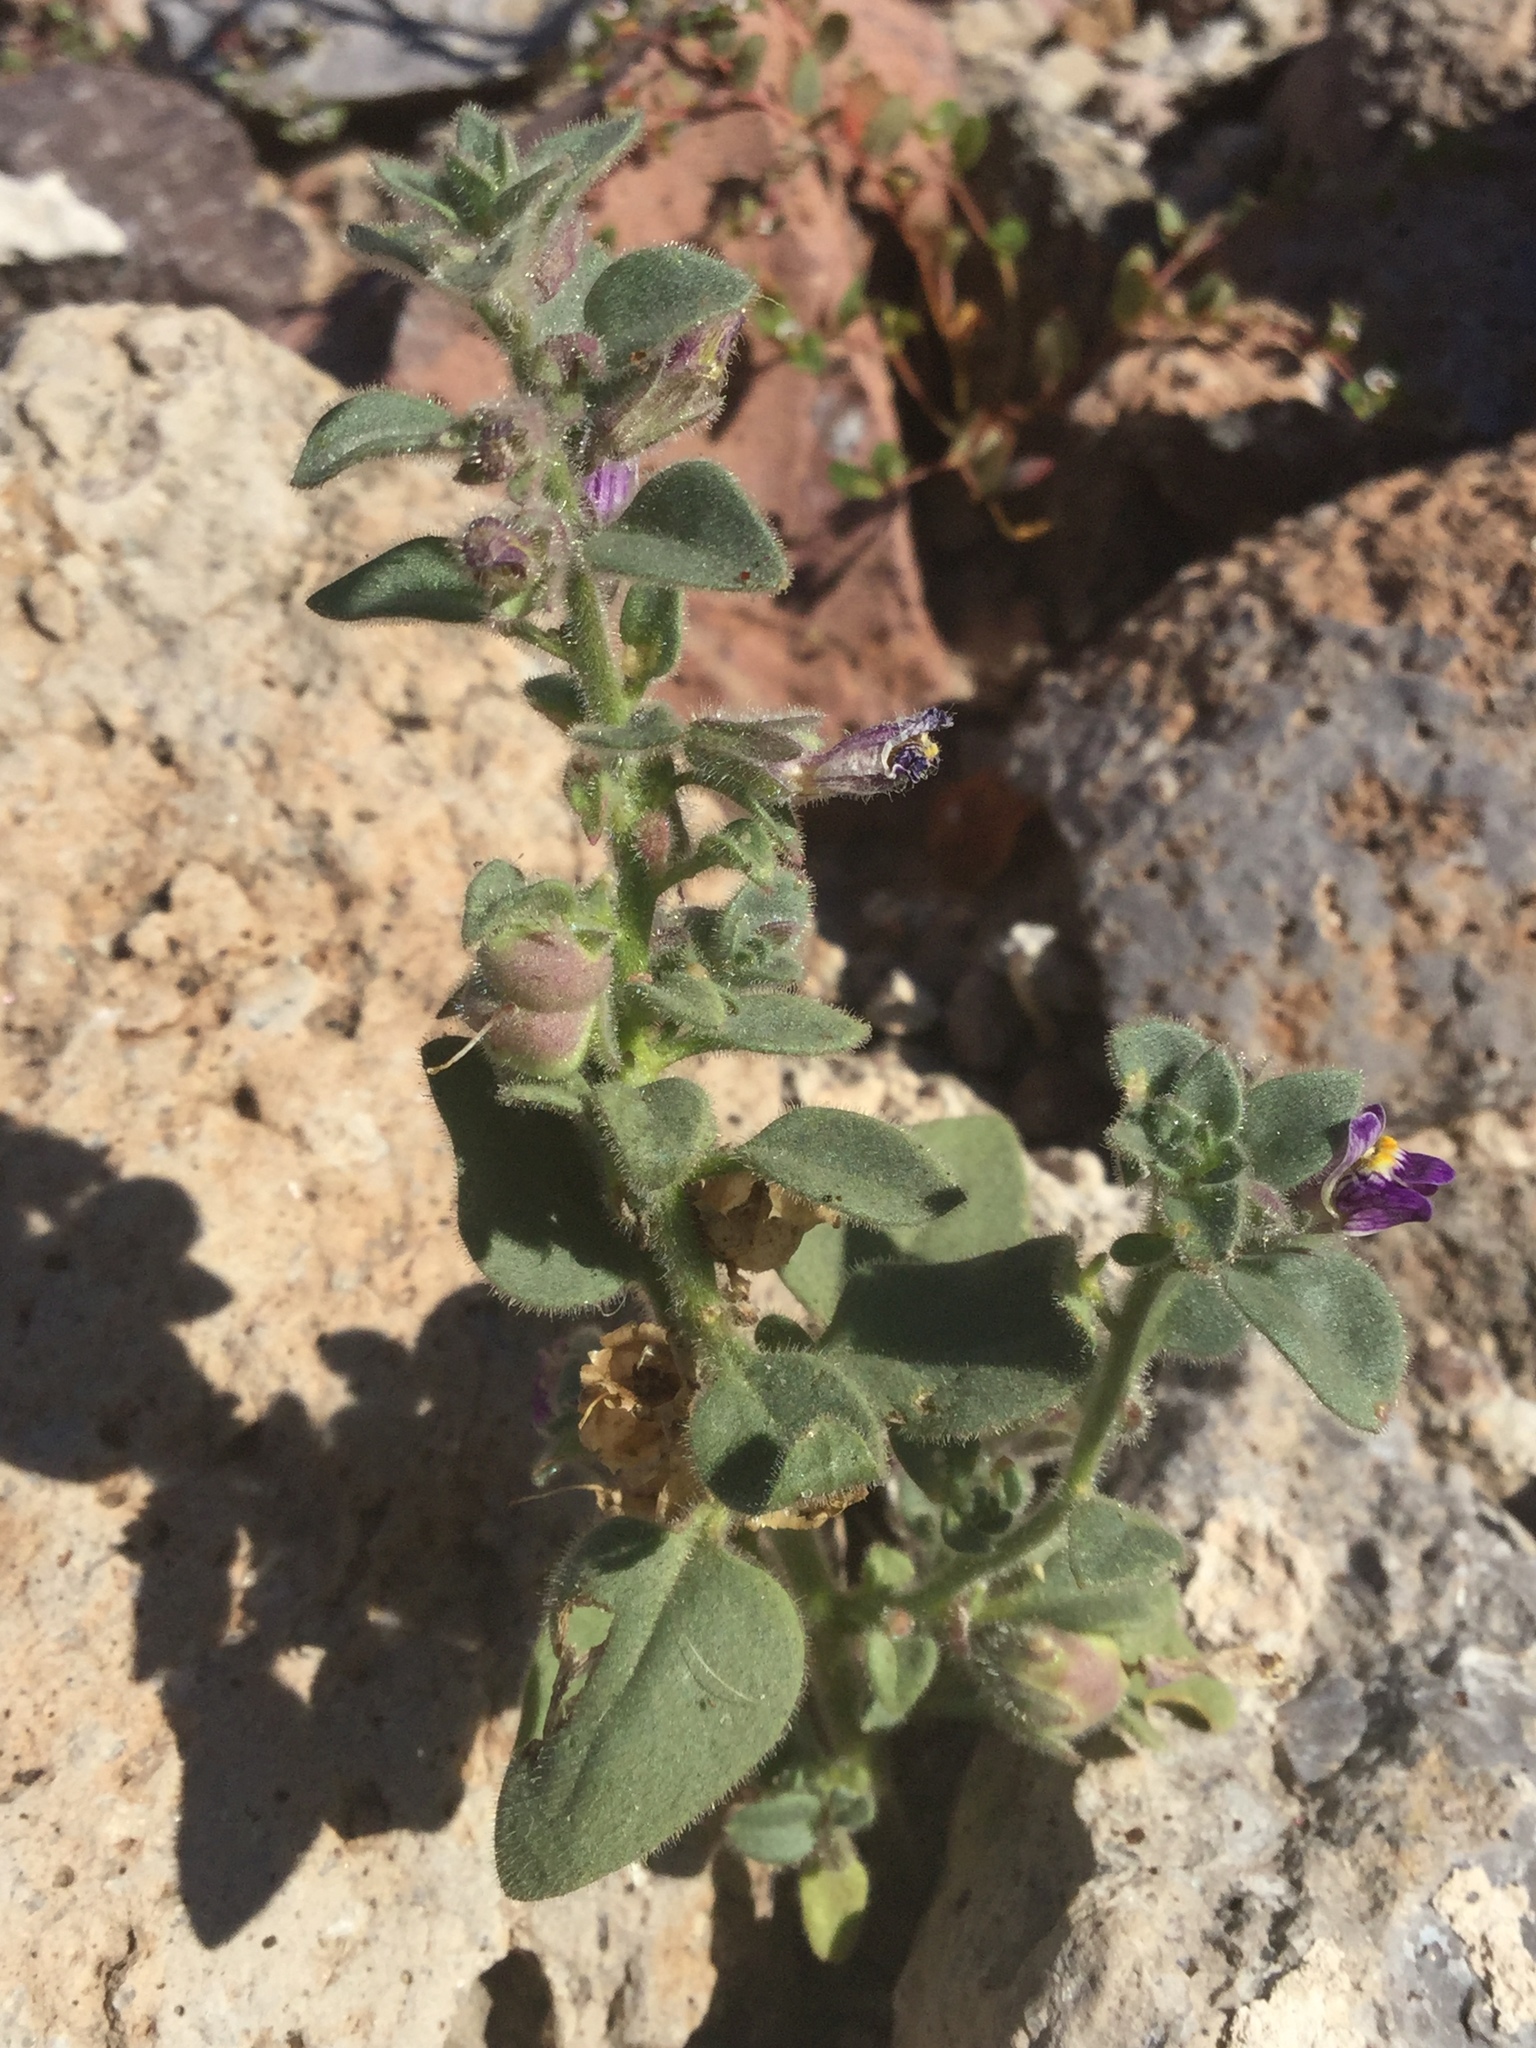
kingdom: Plantae
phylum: Tracheophyta
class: Magnoliopsida
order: Lamiales
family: Plantaginaceae
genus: Pseudorontium
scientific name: Pseudorontium cyathiferum
